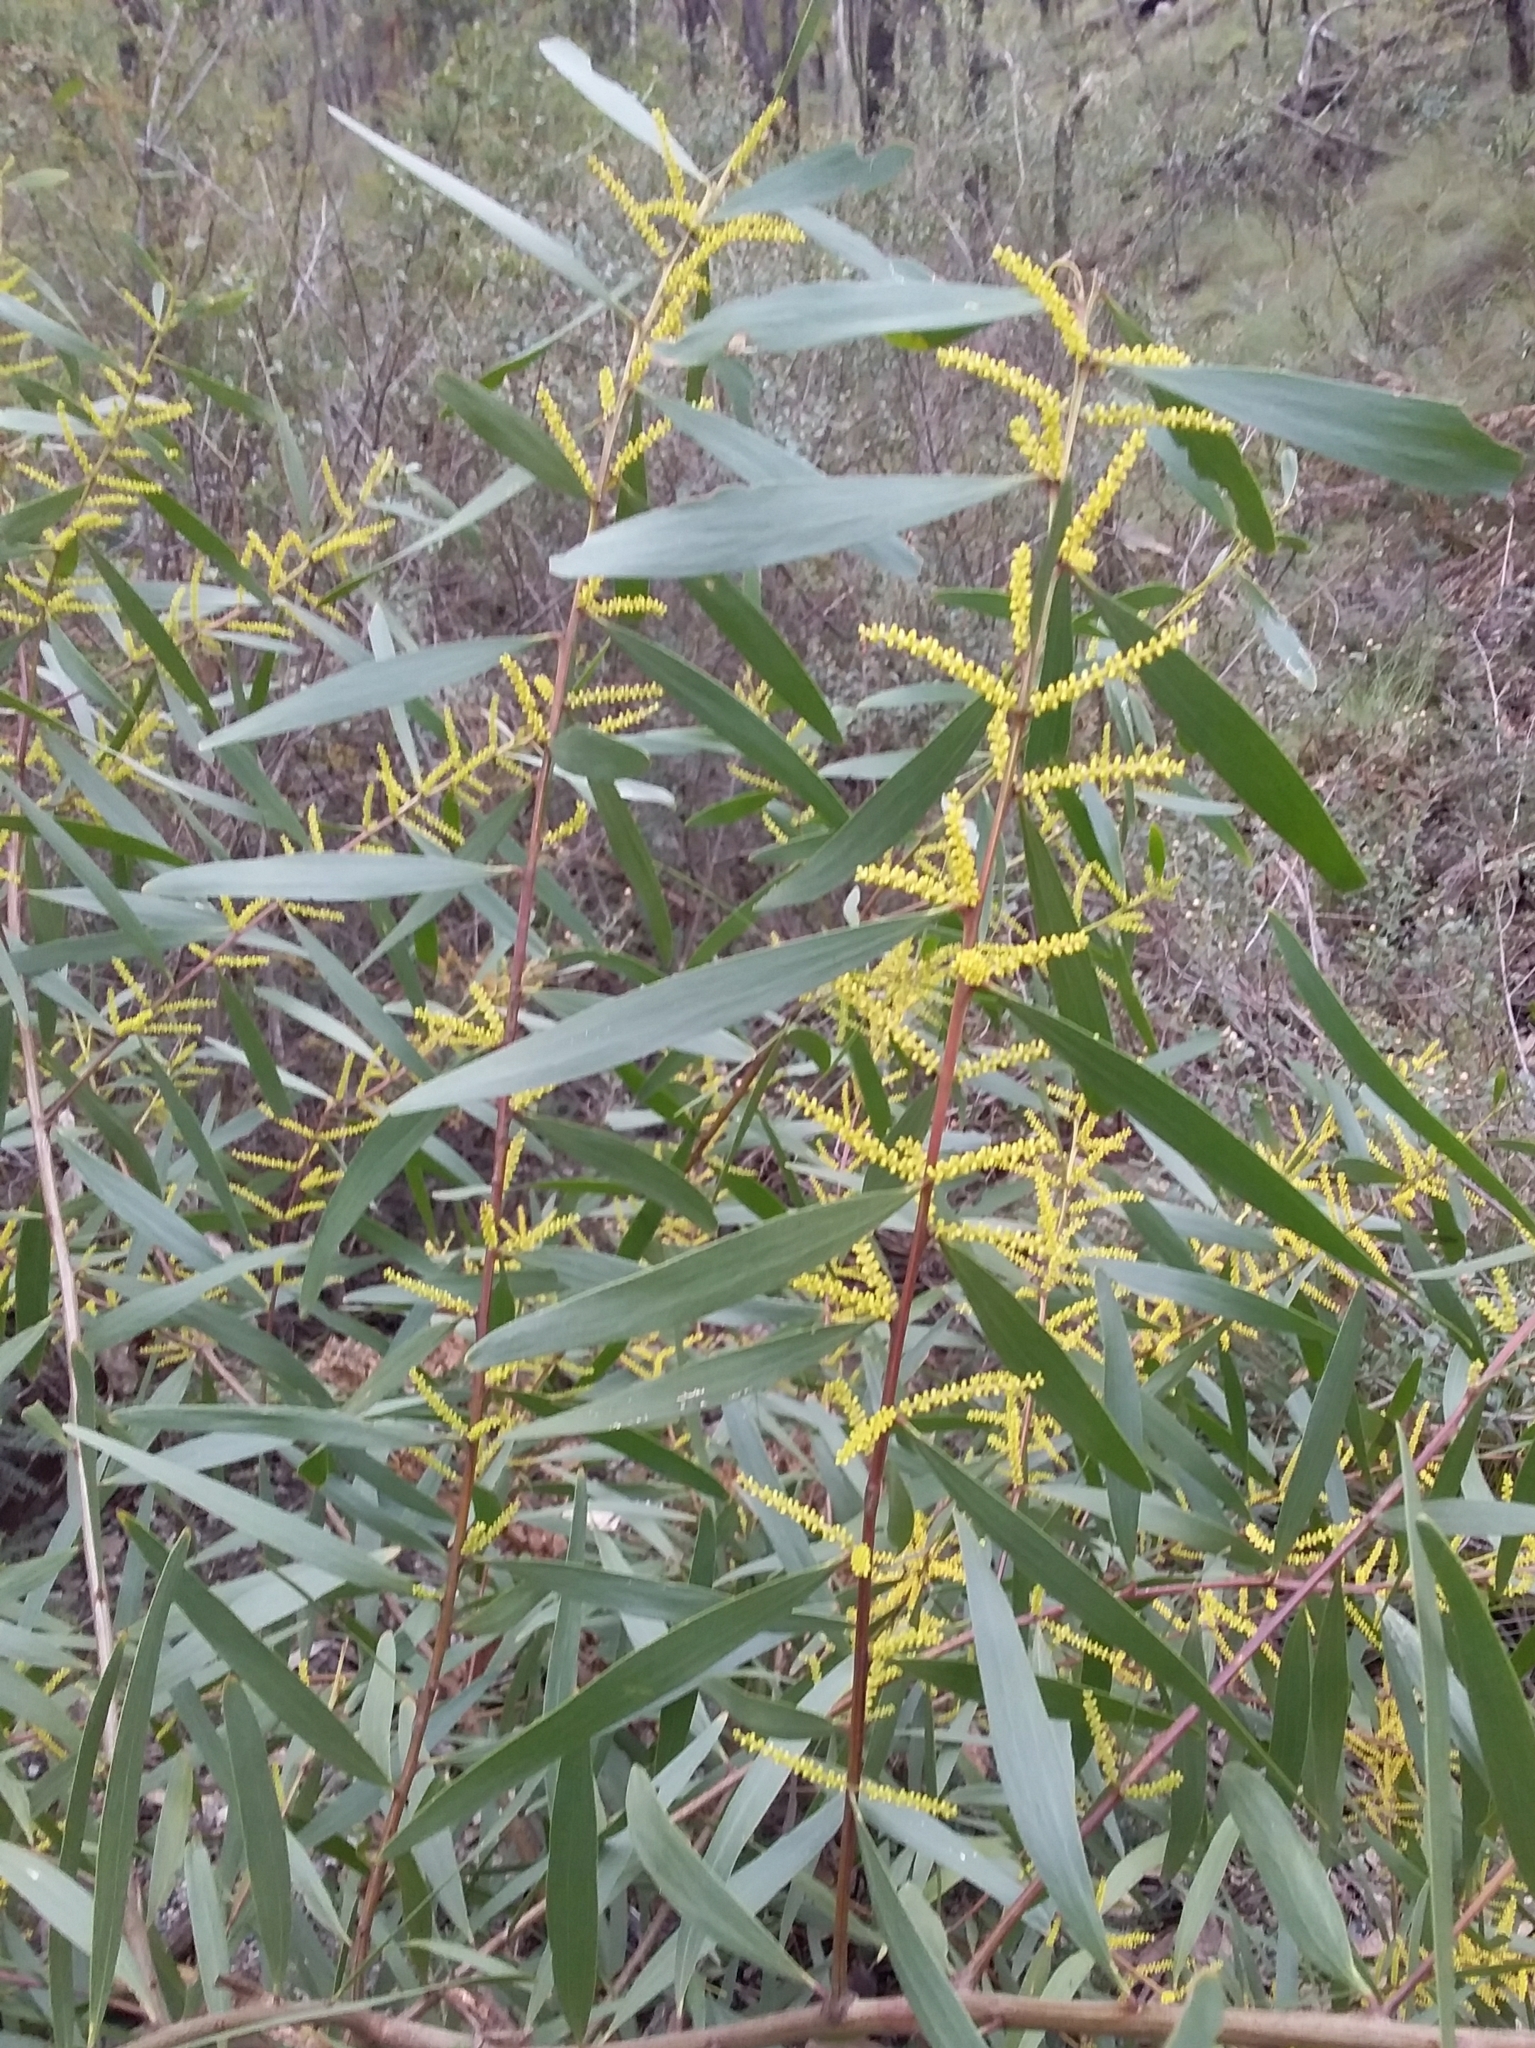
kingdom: Plantae
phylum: Tracheophyta
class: Magnoliopsida
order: Fabales
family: Fabaceae
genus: Acacia
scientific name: Acacia longifolia
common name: Sydney golden wattle
